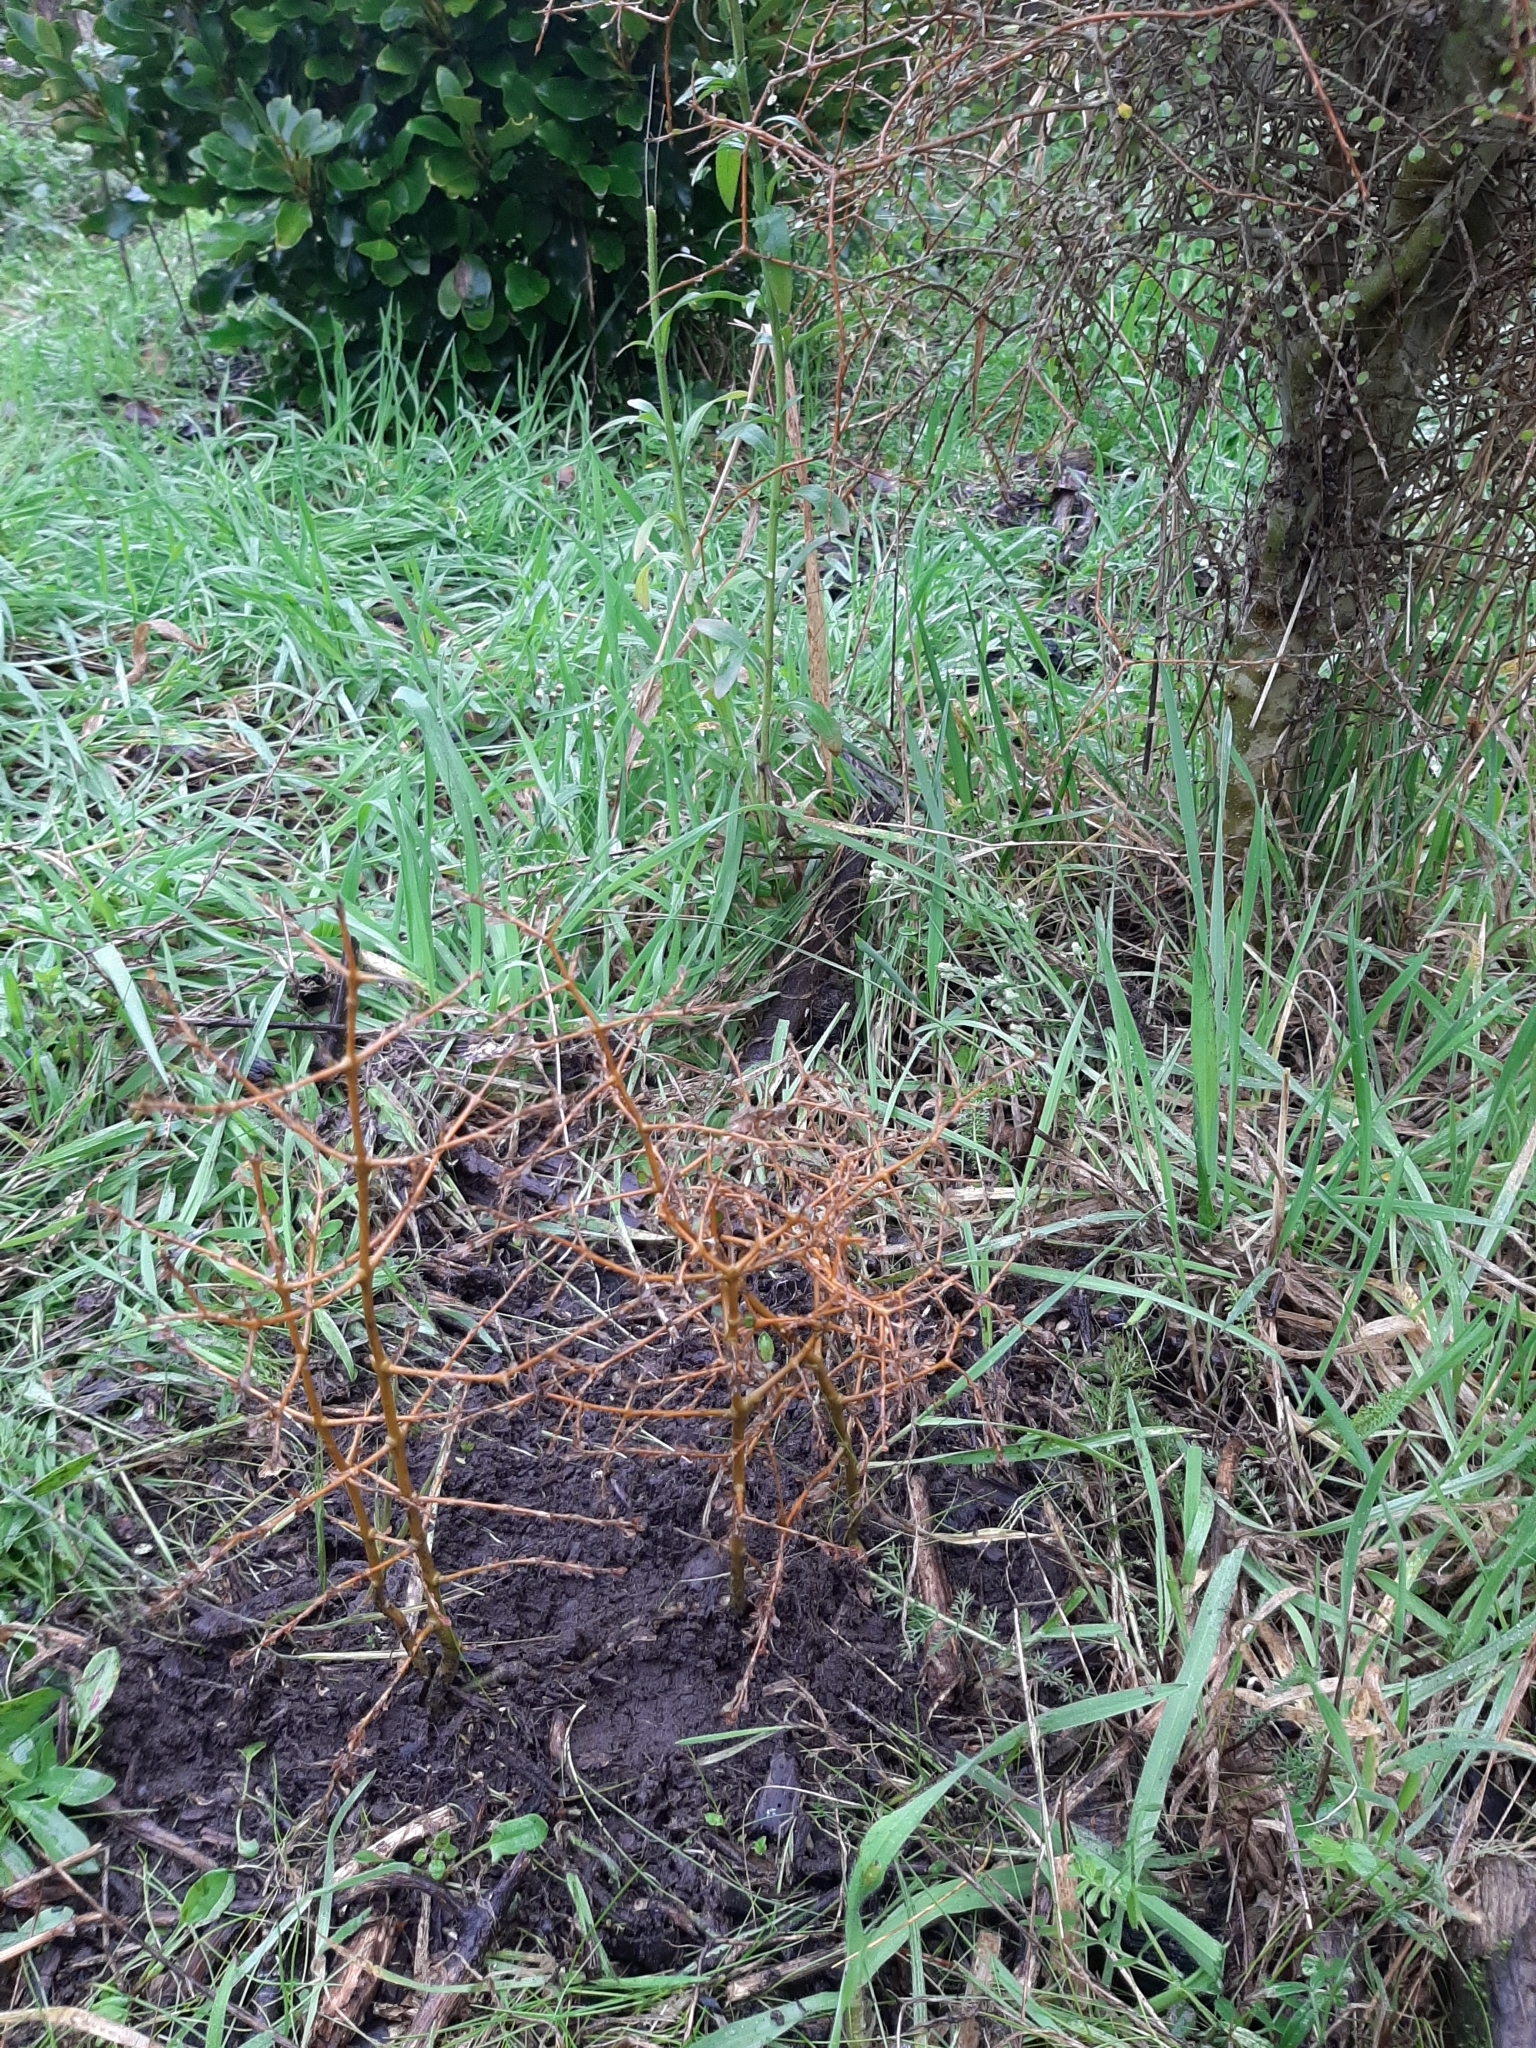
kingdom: Plantae
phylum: Tracheophyta
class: Magnoliopsida
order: Gentianales
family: Rubiaceae
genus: Coprosma
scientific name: Coprosma virescens
